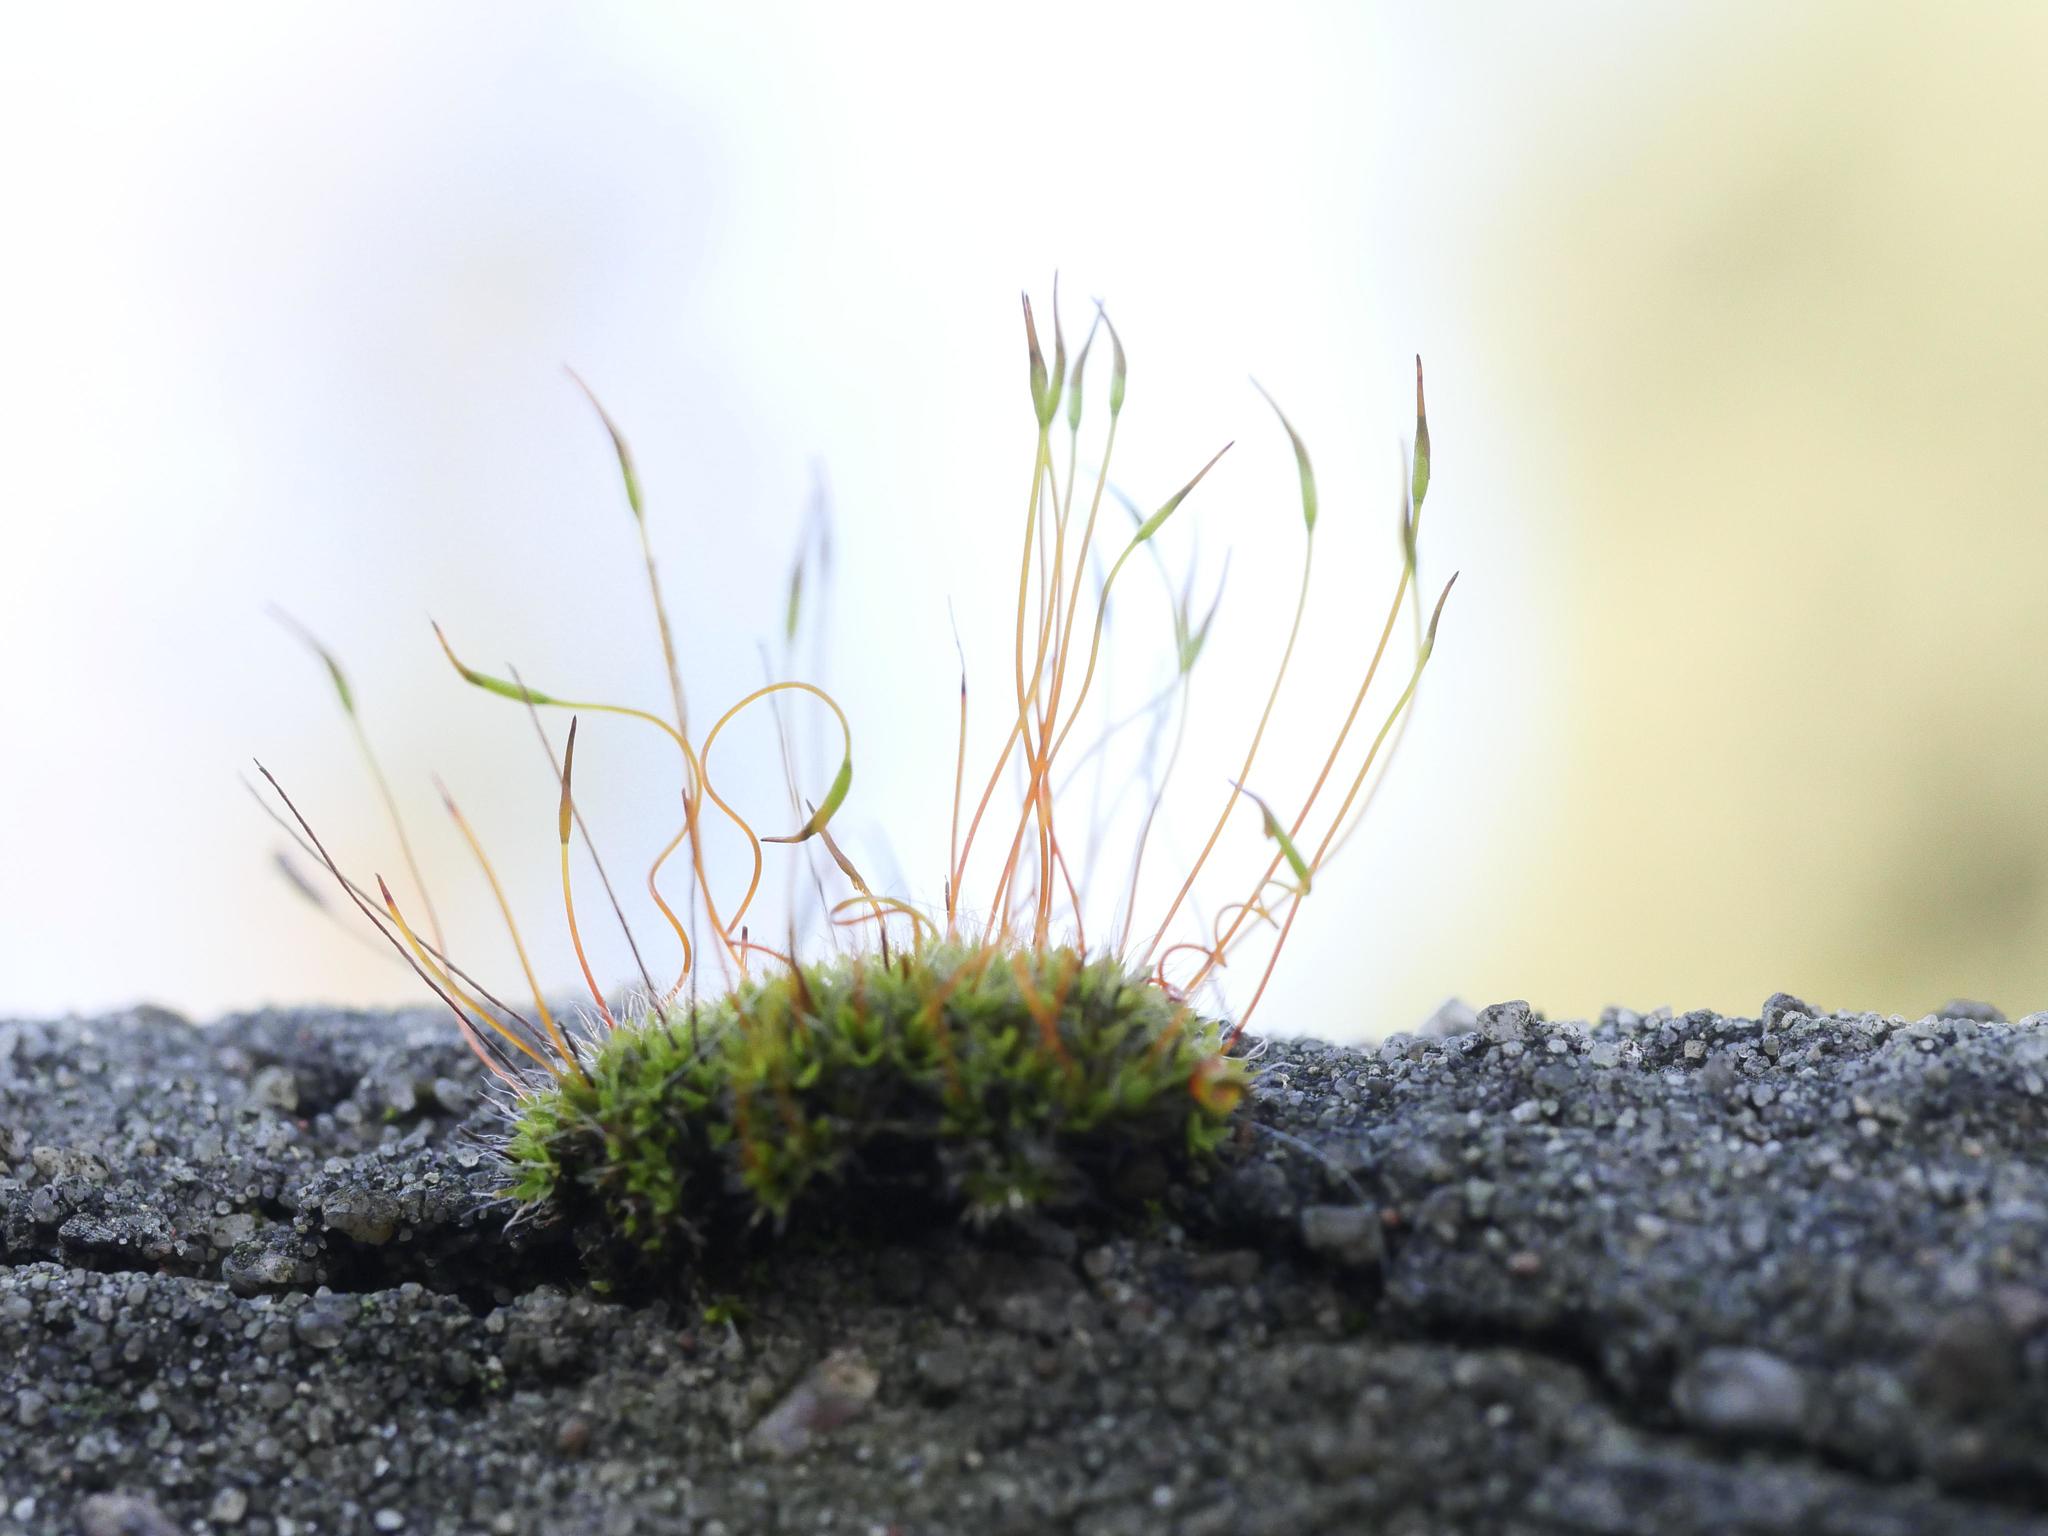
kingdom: Plantae
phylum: Bryophyta
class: Bryopsida
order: Pottiales
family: Pottiaceae
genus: Tortula
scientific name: Tortula muralis
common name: Wall screw-moss
